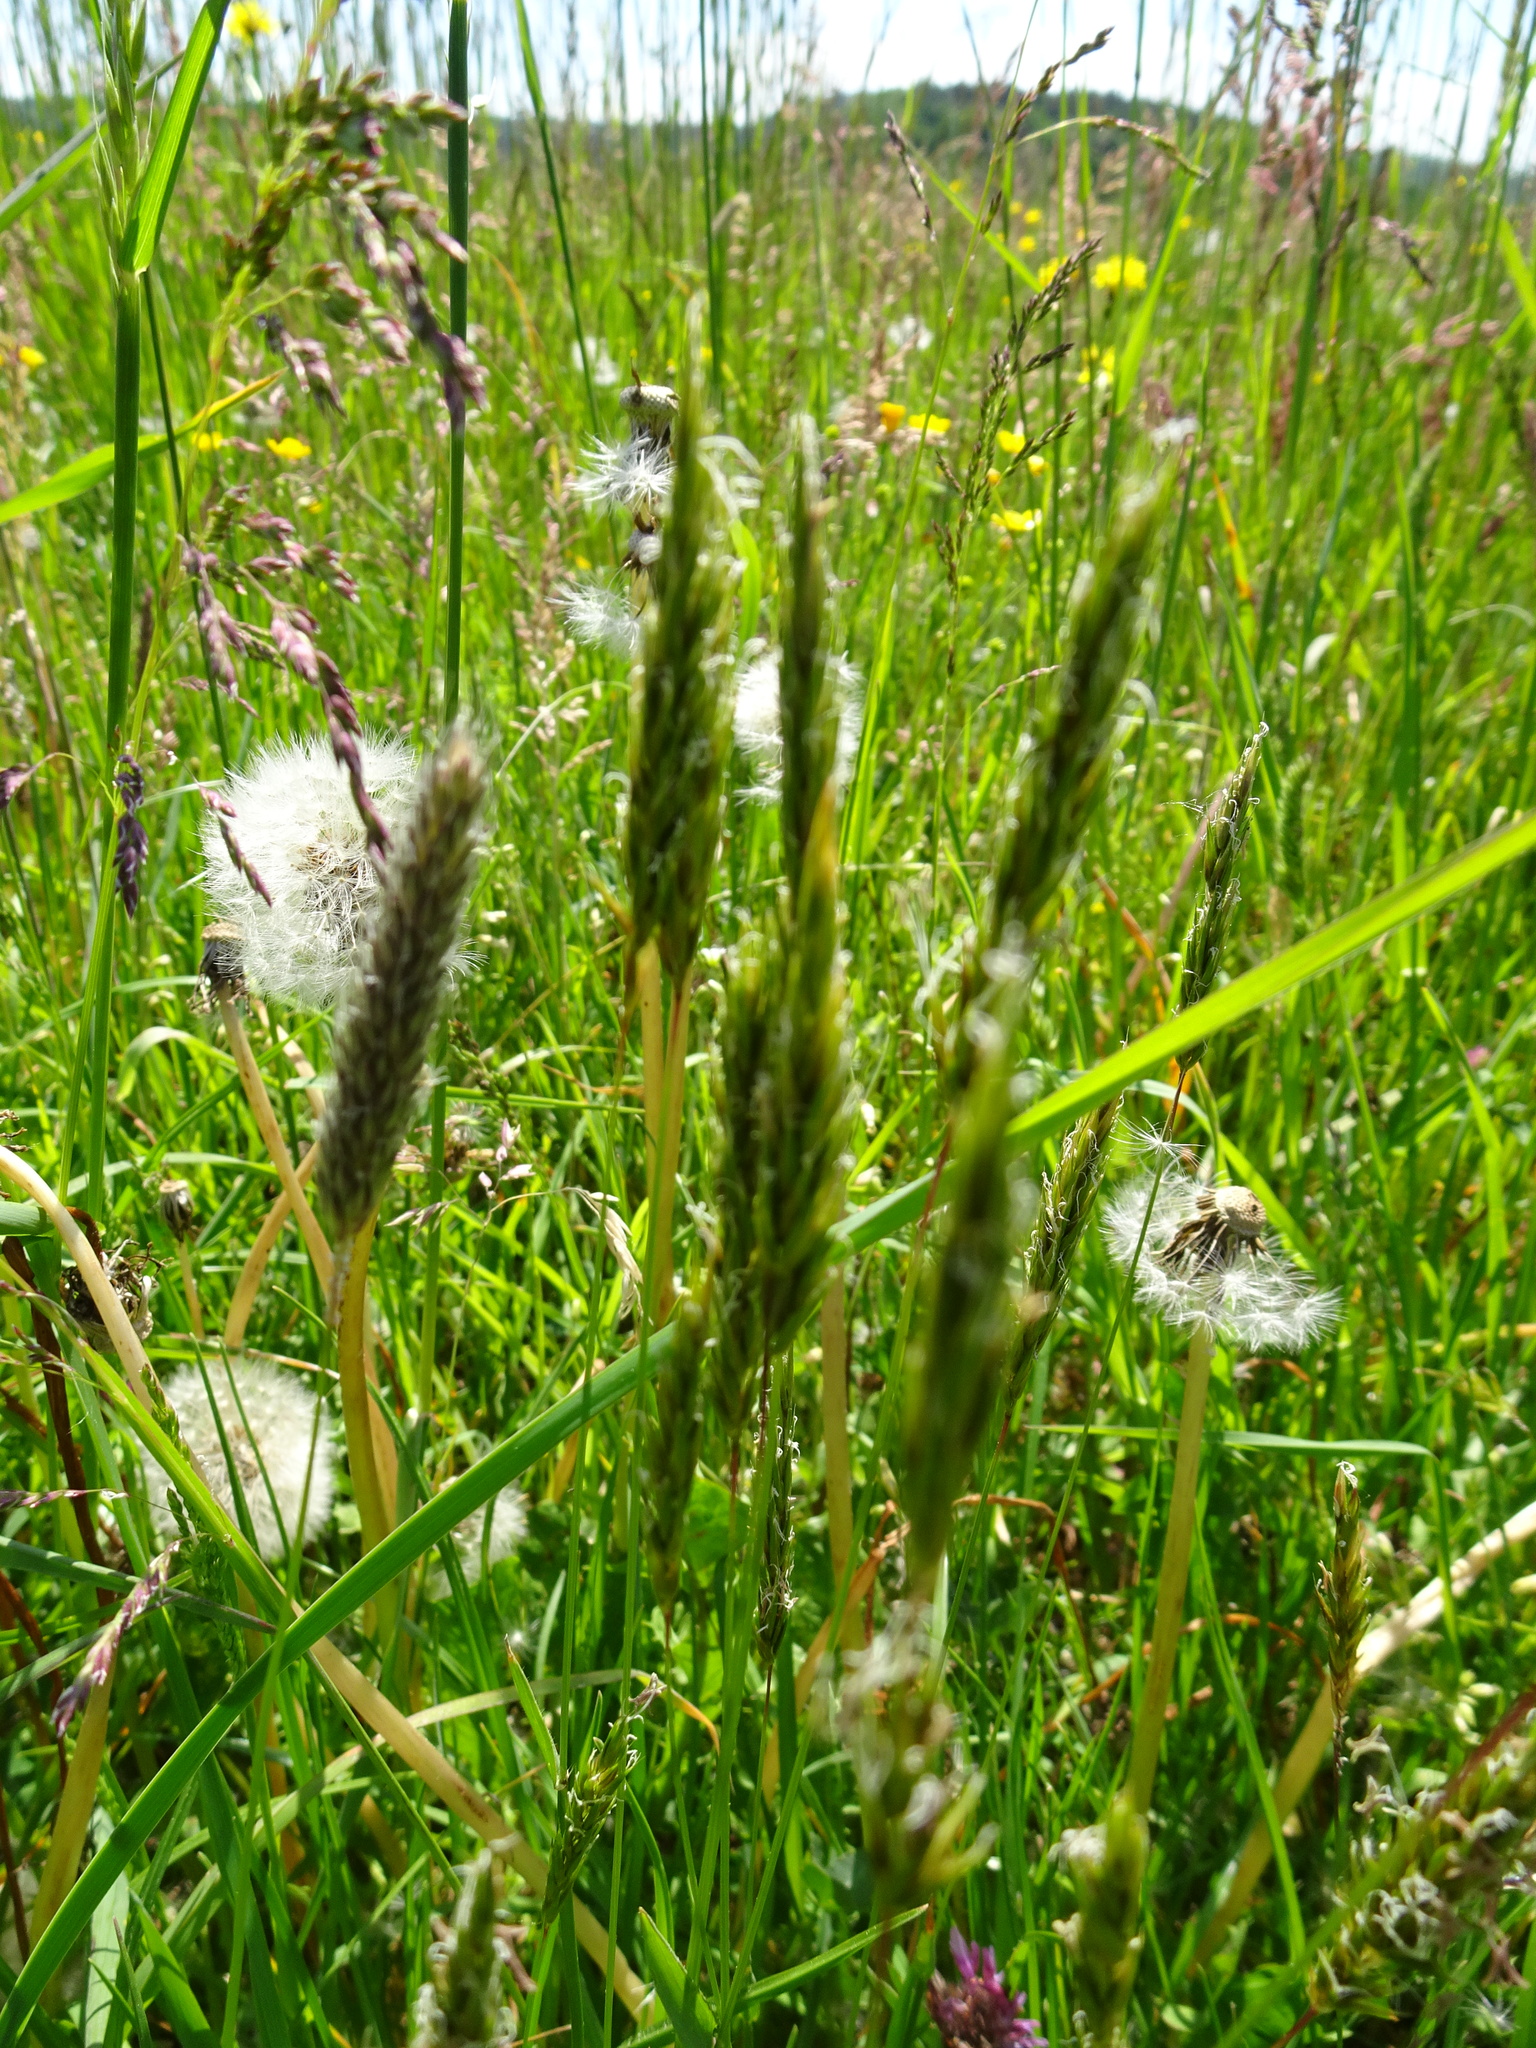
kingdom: Plantae
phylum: Tracheophyta
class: Liliopsida
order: Poales
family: Poaceae
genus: Anthoxanthum
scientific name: Anthoxanthum odoratum
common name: Sweet vernalgrass
